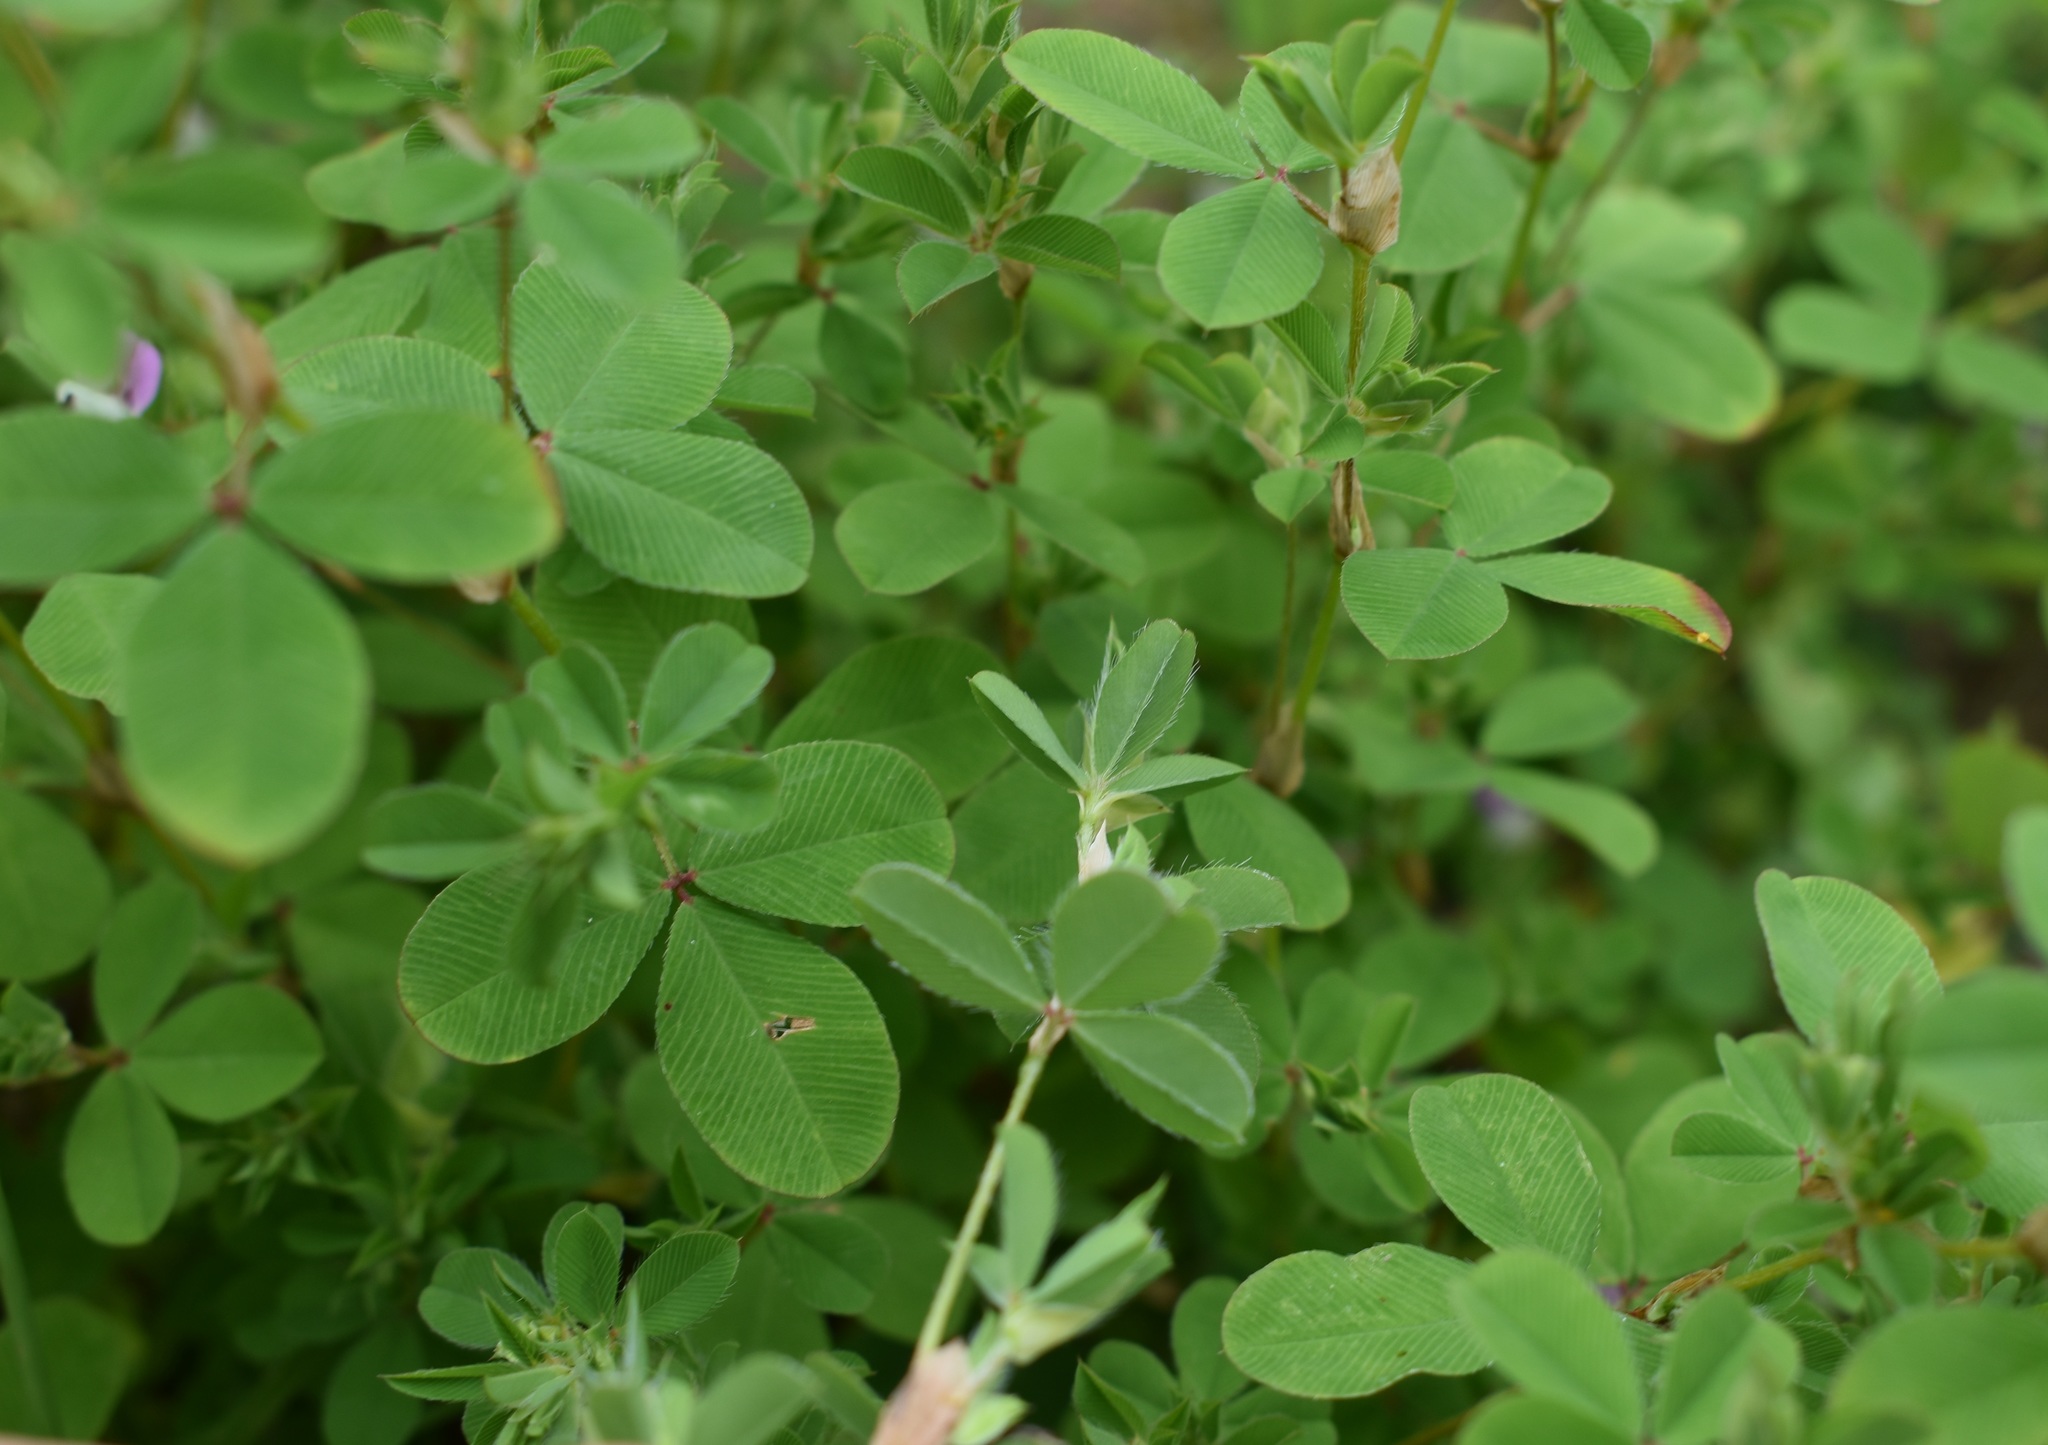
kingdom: Plantae
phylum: Tracheophyta
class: Magnoliopsida
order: Fabales
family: Fabaceae
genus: Kummerowia
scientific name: Kummerowia stipulacea
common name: Korean clover
